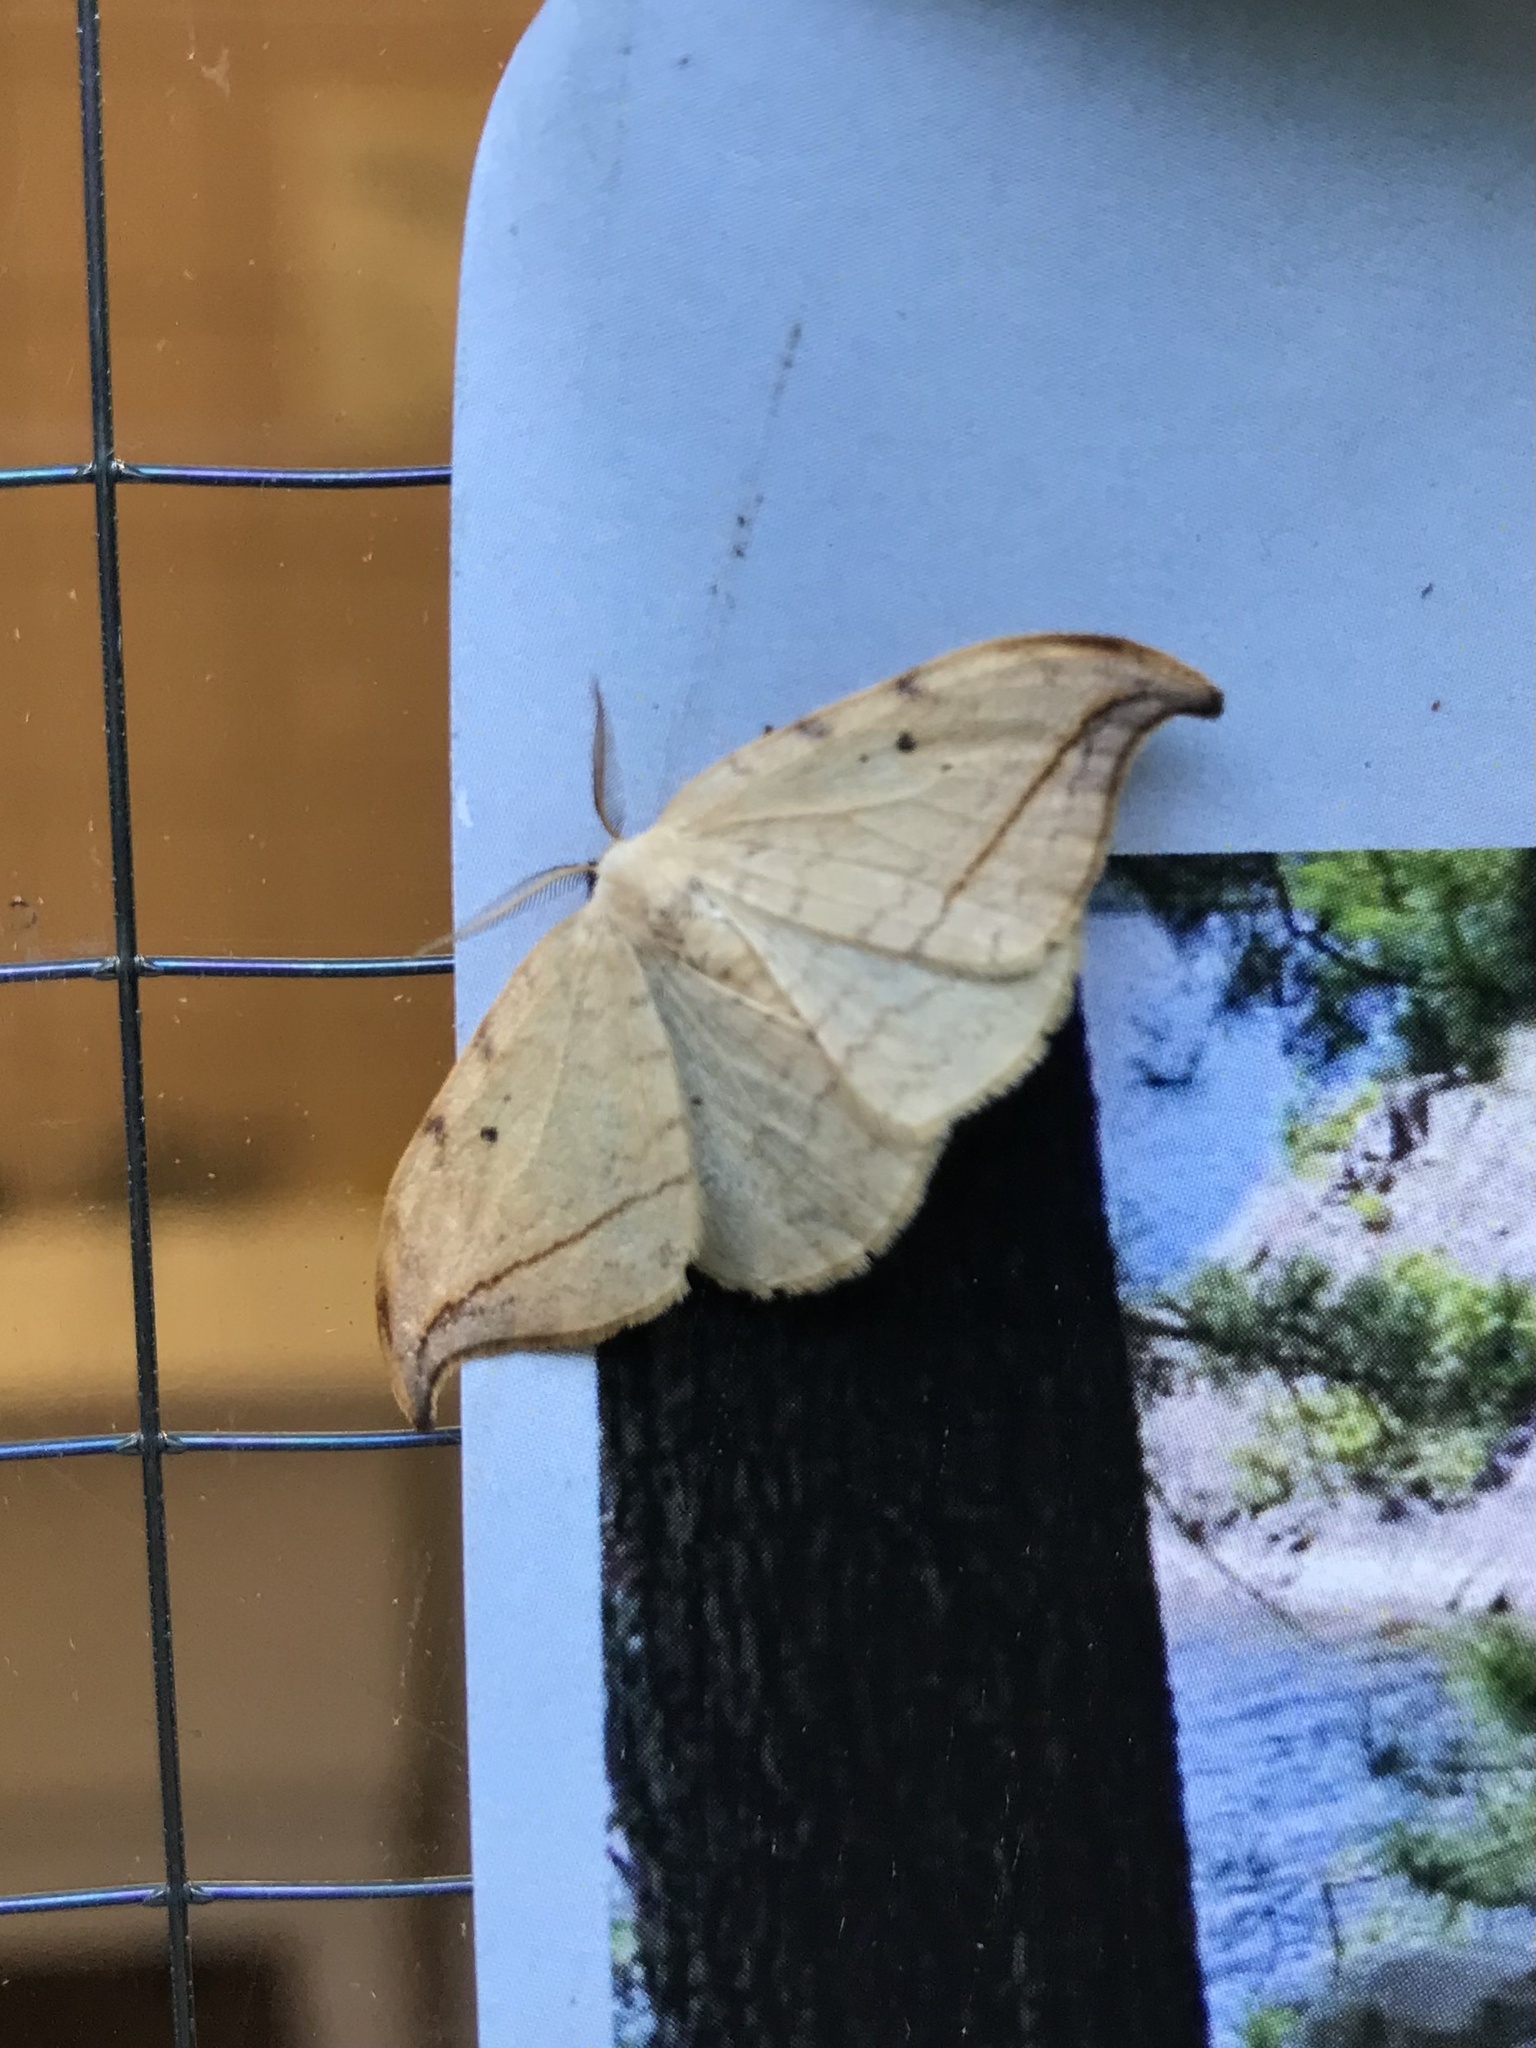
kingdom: Animalia
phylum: Arthropoda
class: Insecta
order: Lepidoptera
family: Drepanidae
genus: Drepana
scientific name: Drepana arcuata
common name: Arched hooktip moth
